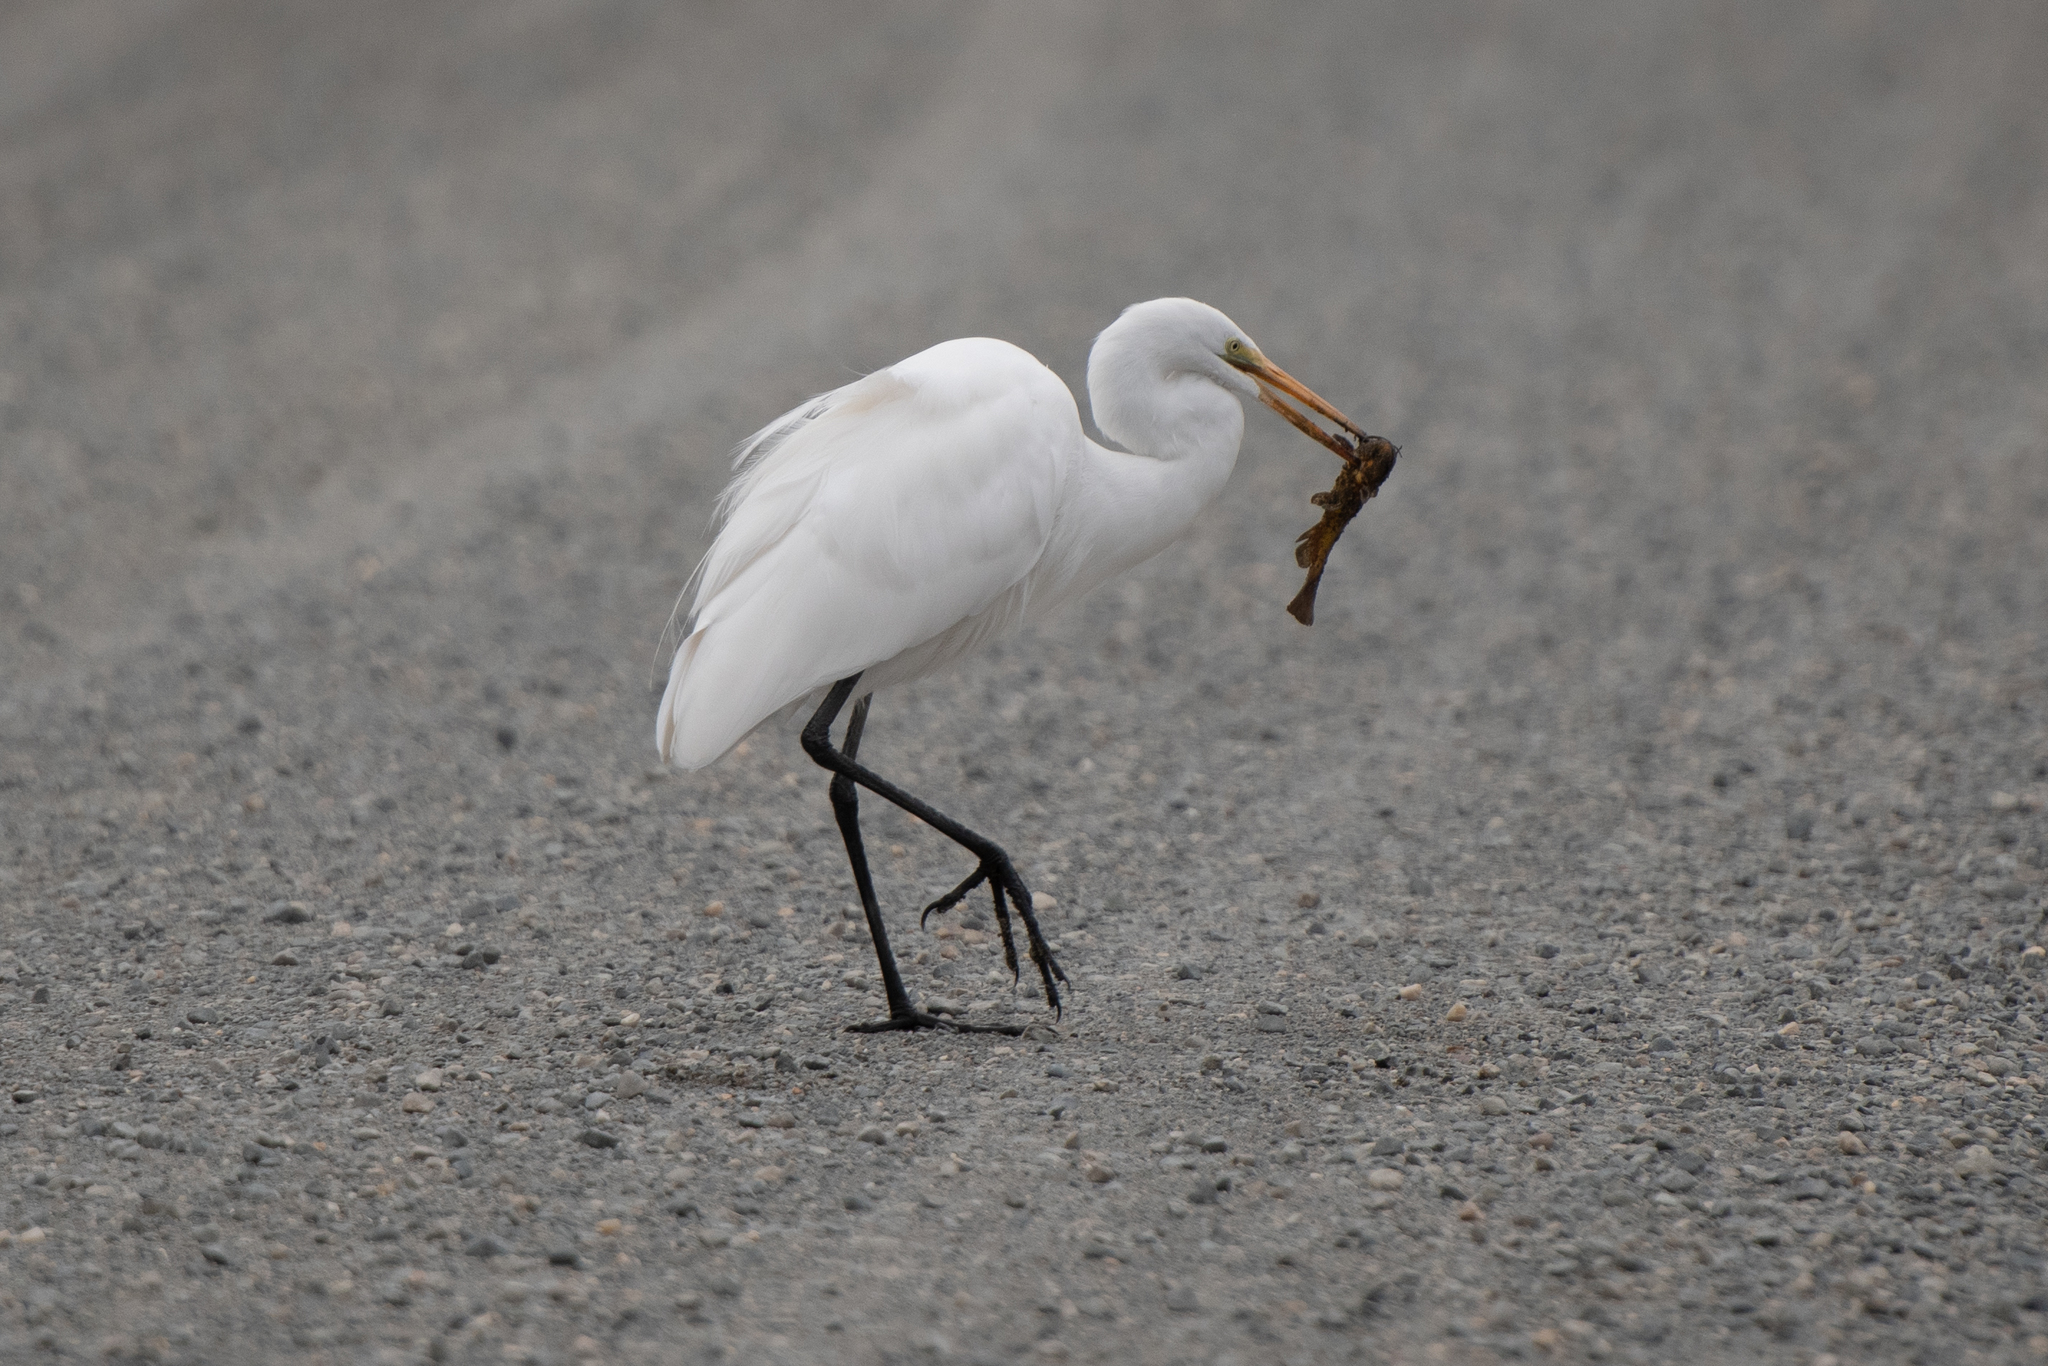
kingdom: Animalia
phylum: Chordata
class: Aves
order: Pelecaniformes
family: Ardeidae
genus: Ardea
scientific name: Ardea alba
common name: Great egret
